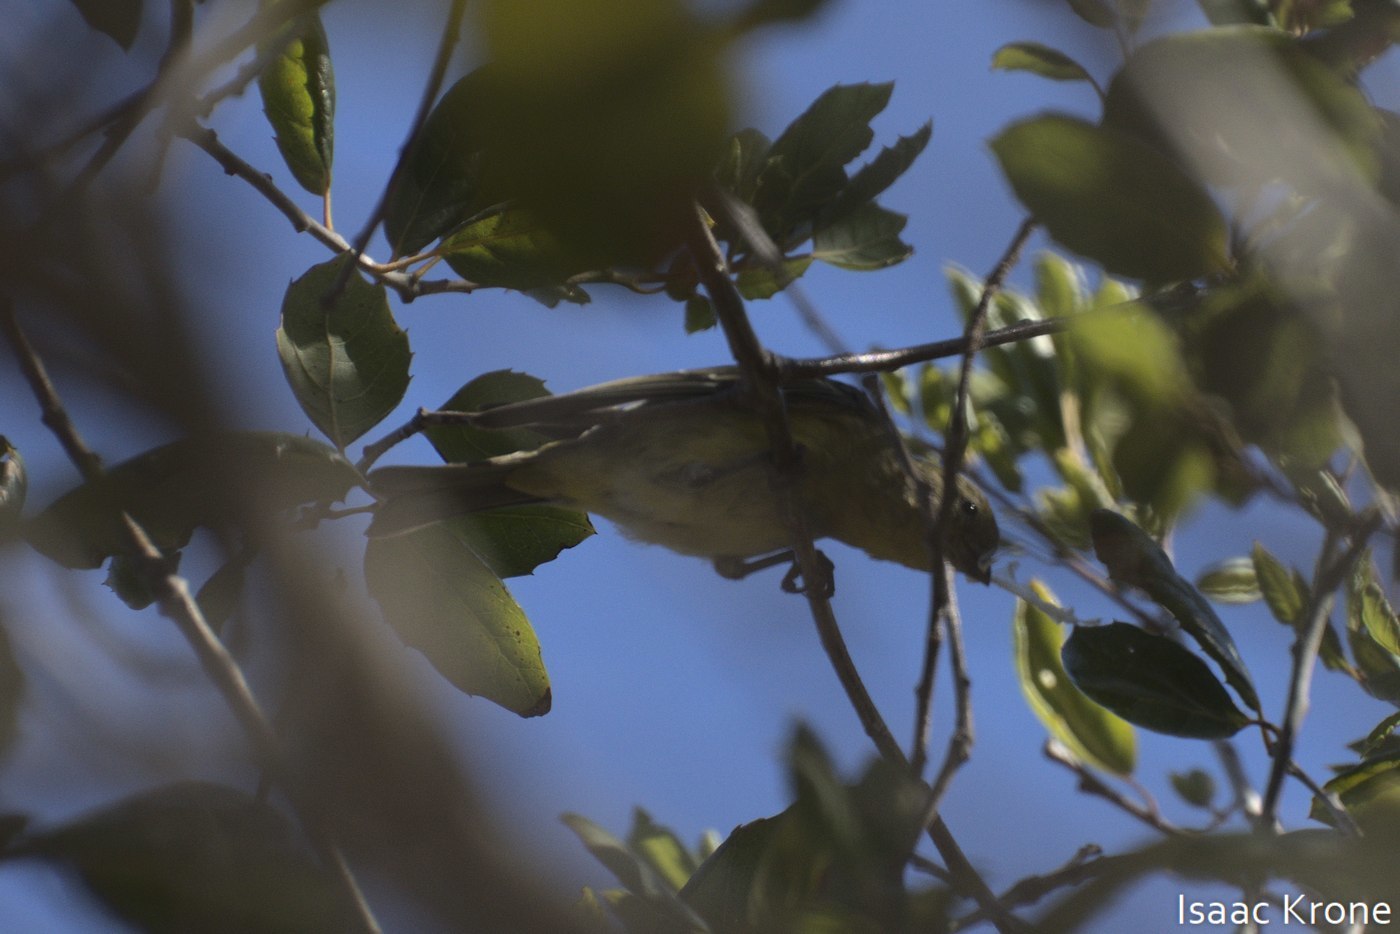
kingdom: Animalia
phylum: Chordata
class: Aves
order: Passeriformes
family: Fringillidae
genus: Spinus
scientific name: Spinus psaltria
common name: Lesser goldfinch
